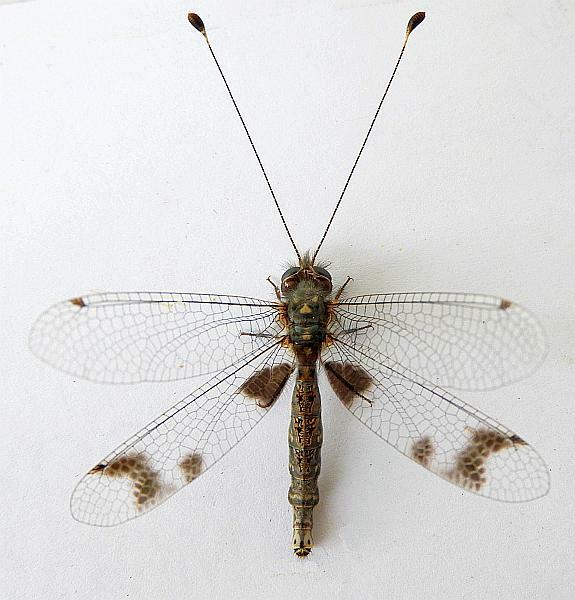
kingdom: Animalia
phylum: Arthropoda
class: Insecta
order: Neuroptera
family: Ascalaphidae
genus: Ululodes
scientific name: Ululodes arizonensis
